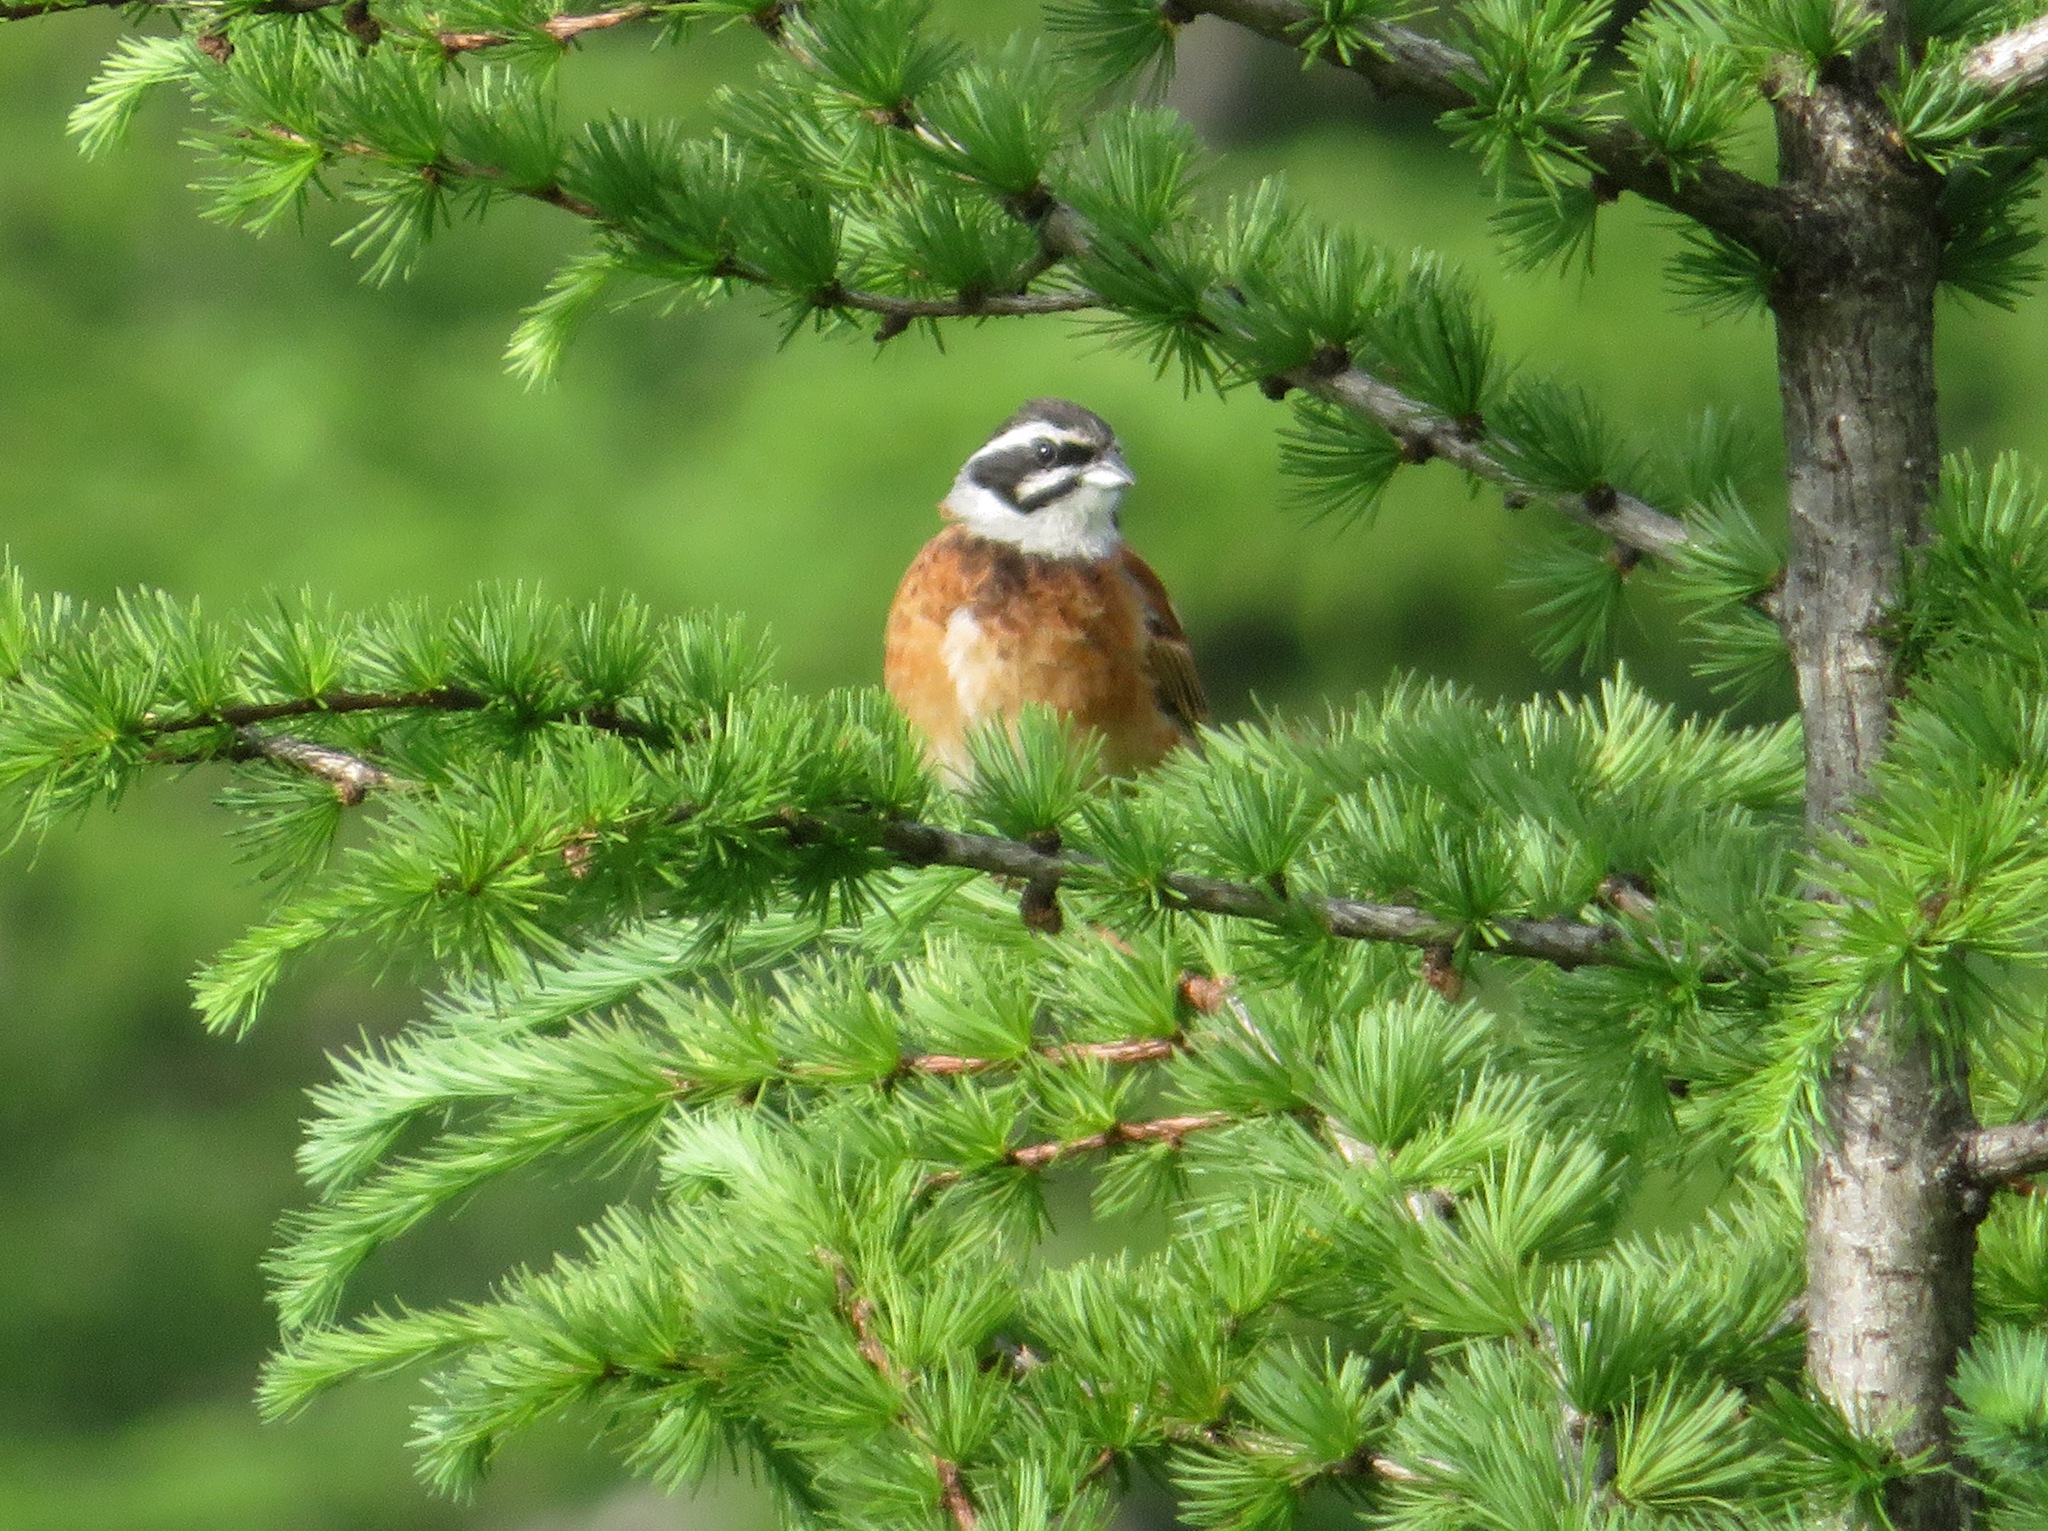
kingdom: Animalia
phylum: Chordata
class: Aves
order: Passeriformes
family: Emberizidae
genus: Emberiza
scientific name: Emberiza cioides
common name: Meadow bunting
